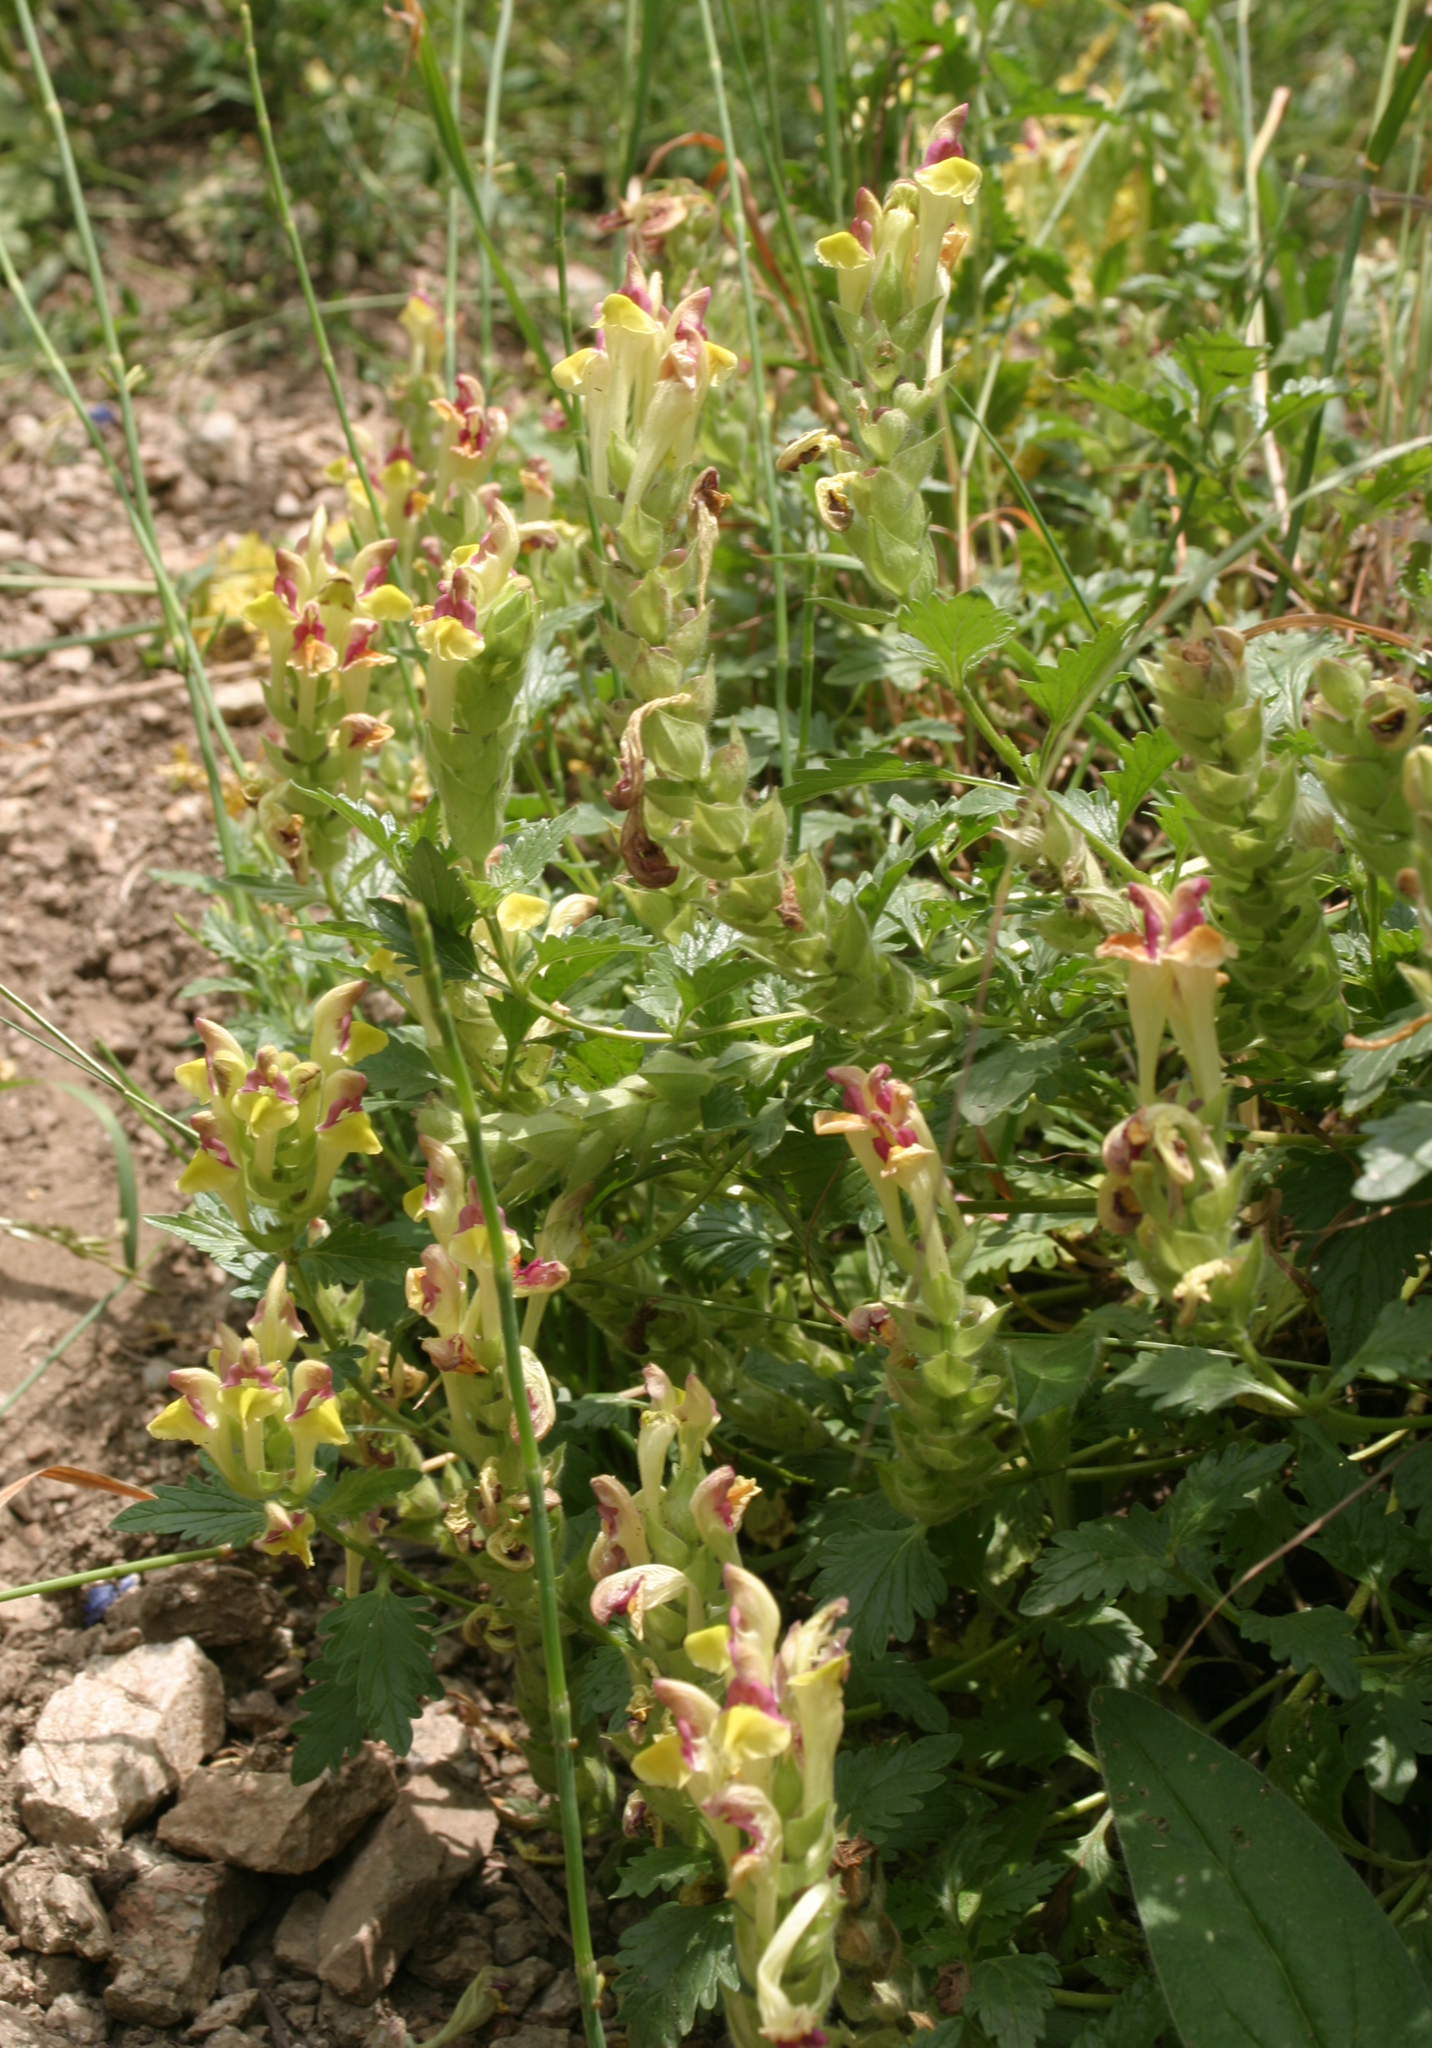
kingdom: Plantae
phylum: Tracheophyta
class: Magnoliopsida
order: Lamiales
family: Lamiaceae
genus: Scutellaria
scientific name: Scutellaria sieversii
